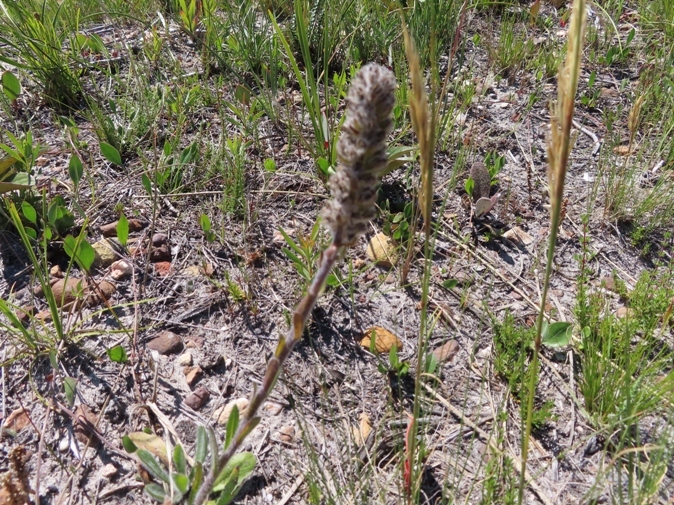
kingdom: Plantae
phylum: Tracheophyta
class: Magnoliopsida
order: Boraginales
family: Boraginaceae
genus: Lobostemon
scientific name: Lobostemon ecklonianus
